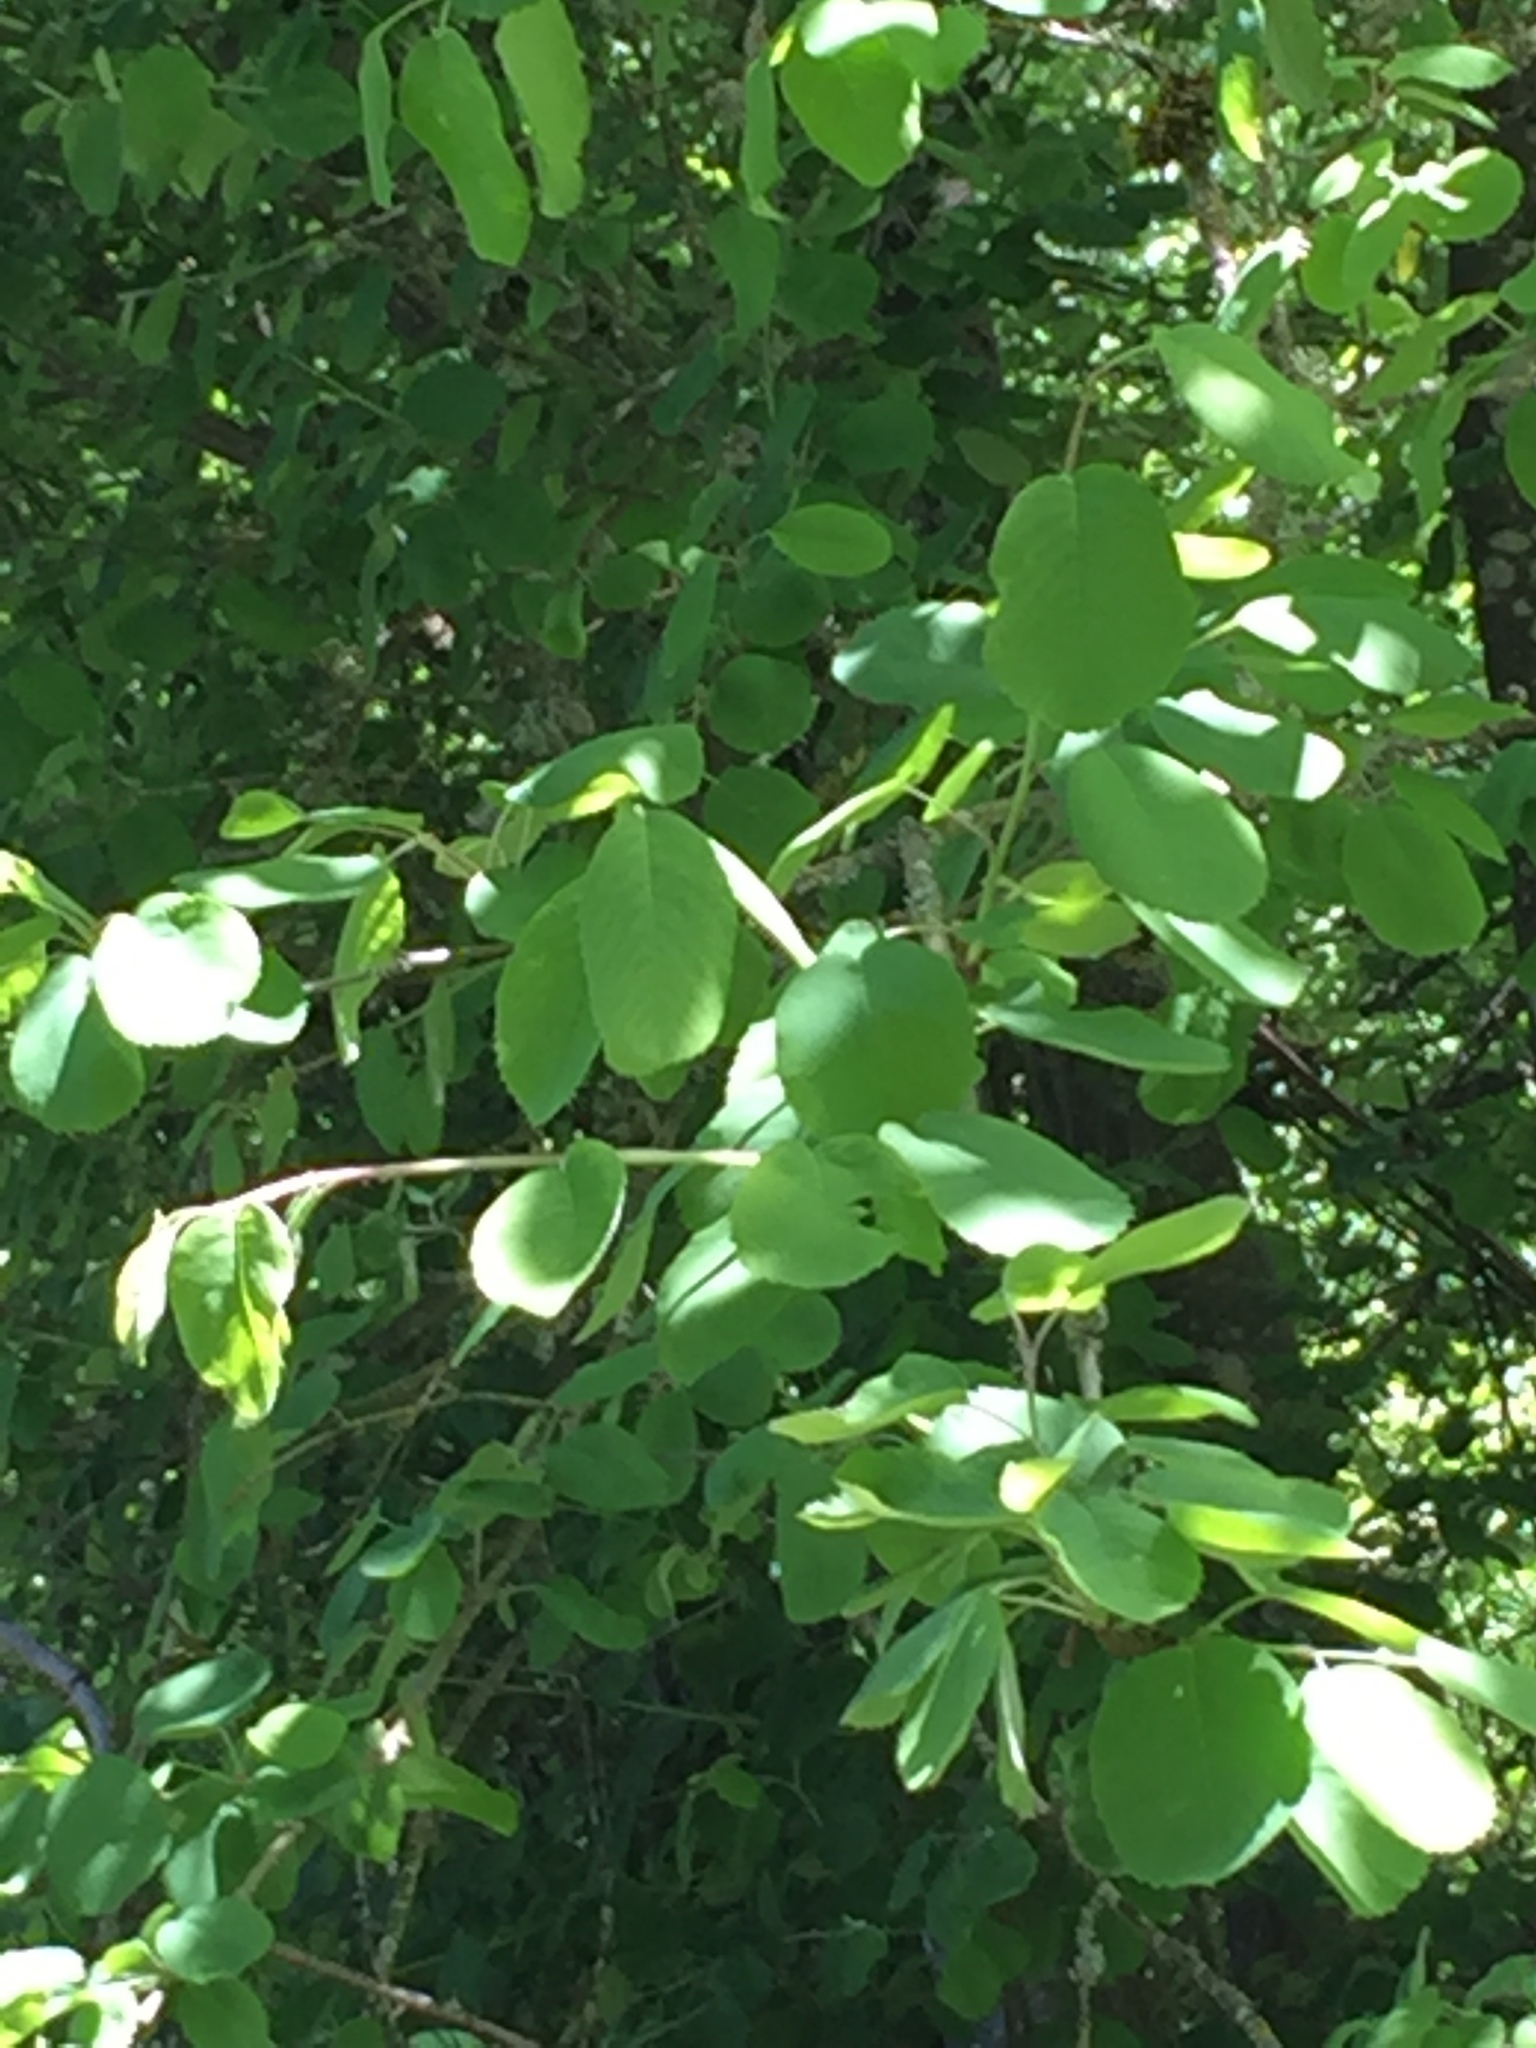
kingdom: Plantae
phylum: Tracheophyta
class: Magnoliopsida
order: Rosales
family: Rosaceae
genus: Amelanchier
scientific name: Amelanchier alnifolia
